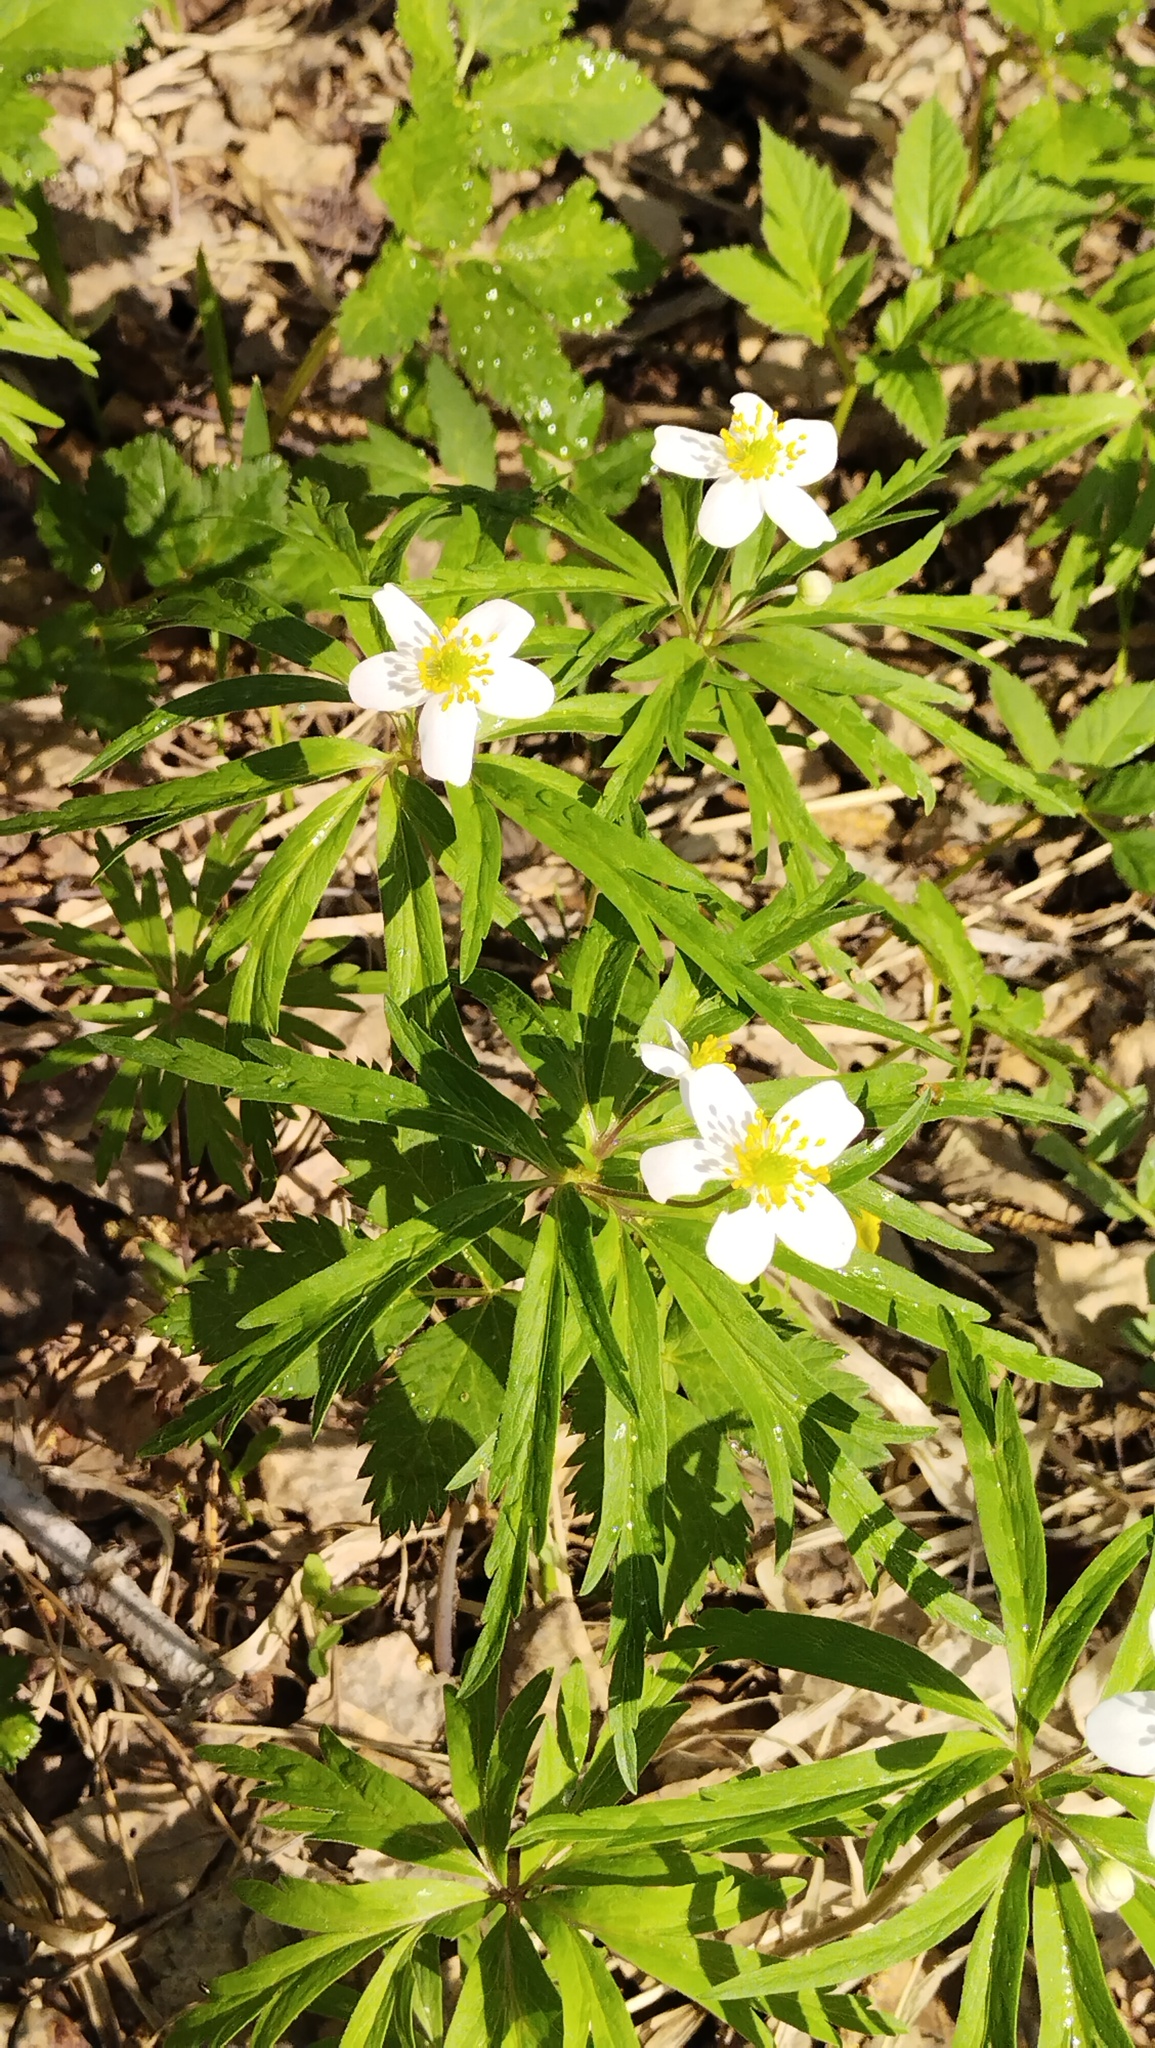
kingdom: Plantae
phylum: Tracheophyta
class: Magnoliopsida
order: Ranunculales
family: Ranunculaceae
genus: Anemone
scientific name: Anemone caerulea
